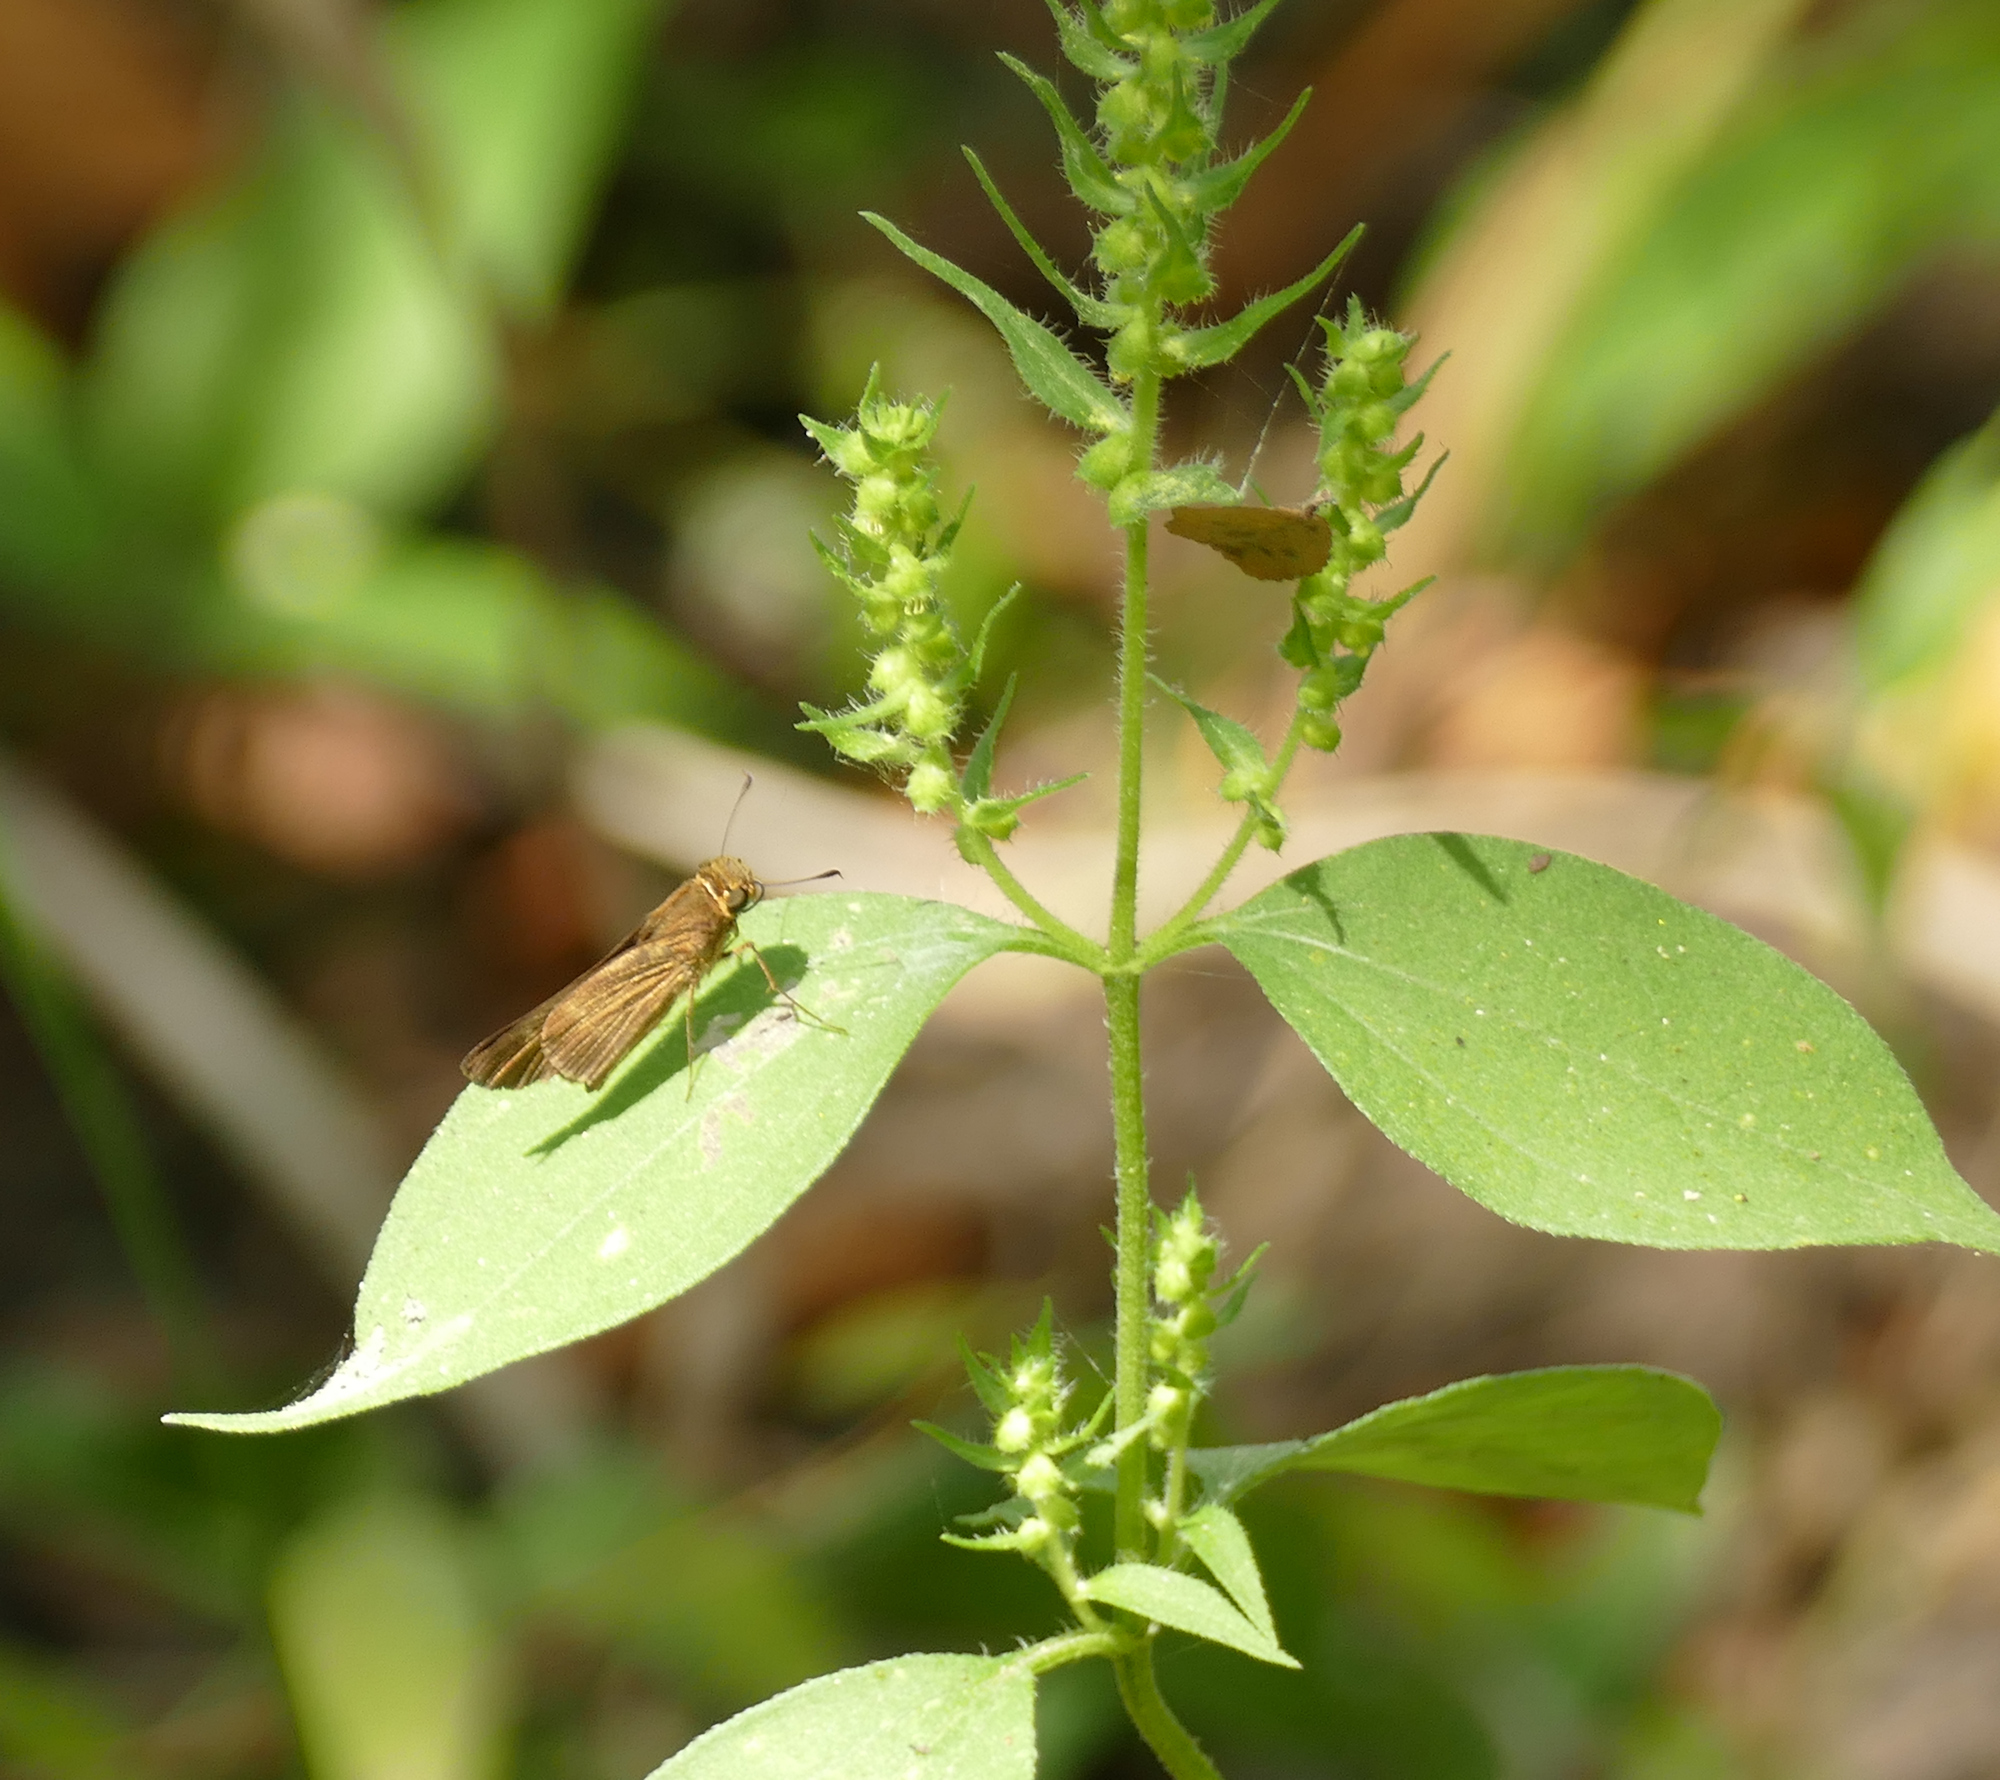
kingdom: Plantae
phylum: Tracheophyta
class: Magnoliopsida
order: Asterales
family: Asteraceae
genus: Iva
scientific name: Iva annua
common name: Marsh-elder
